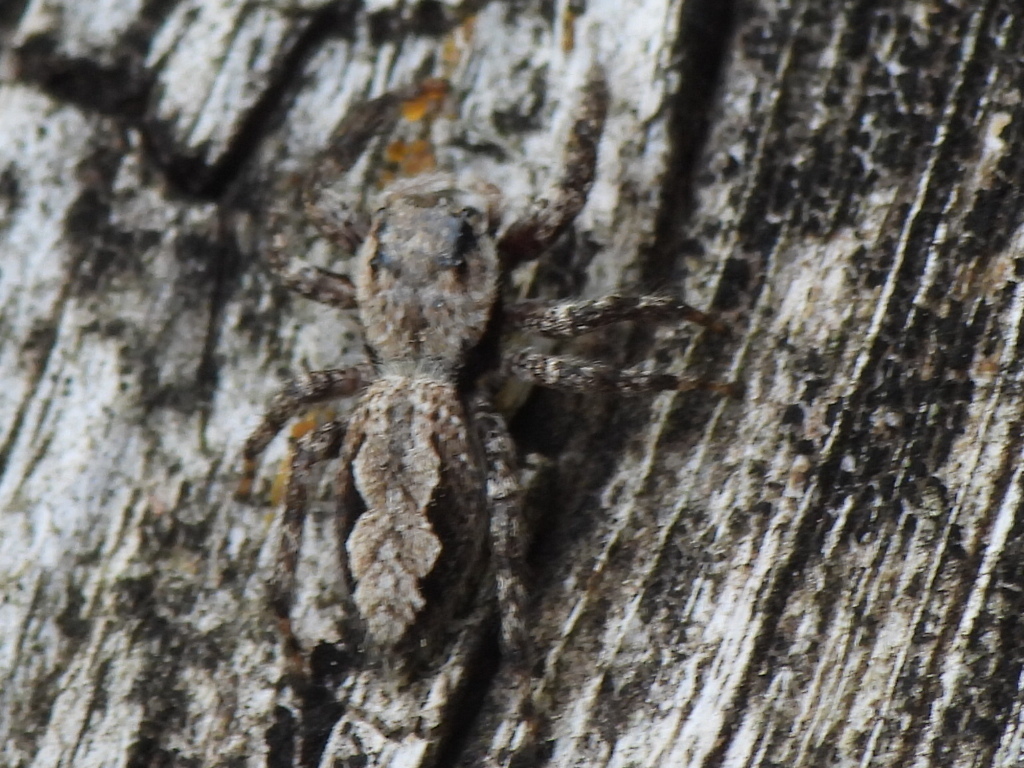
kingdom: Animalia
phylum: Arthropoda
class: Arachnida
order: Araneae
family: Salticidae
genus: Platycryptus
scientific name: Platycryptus undatus
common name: Tan jumping spider
